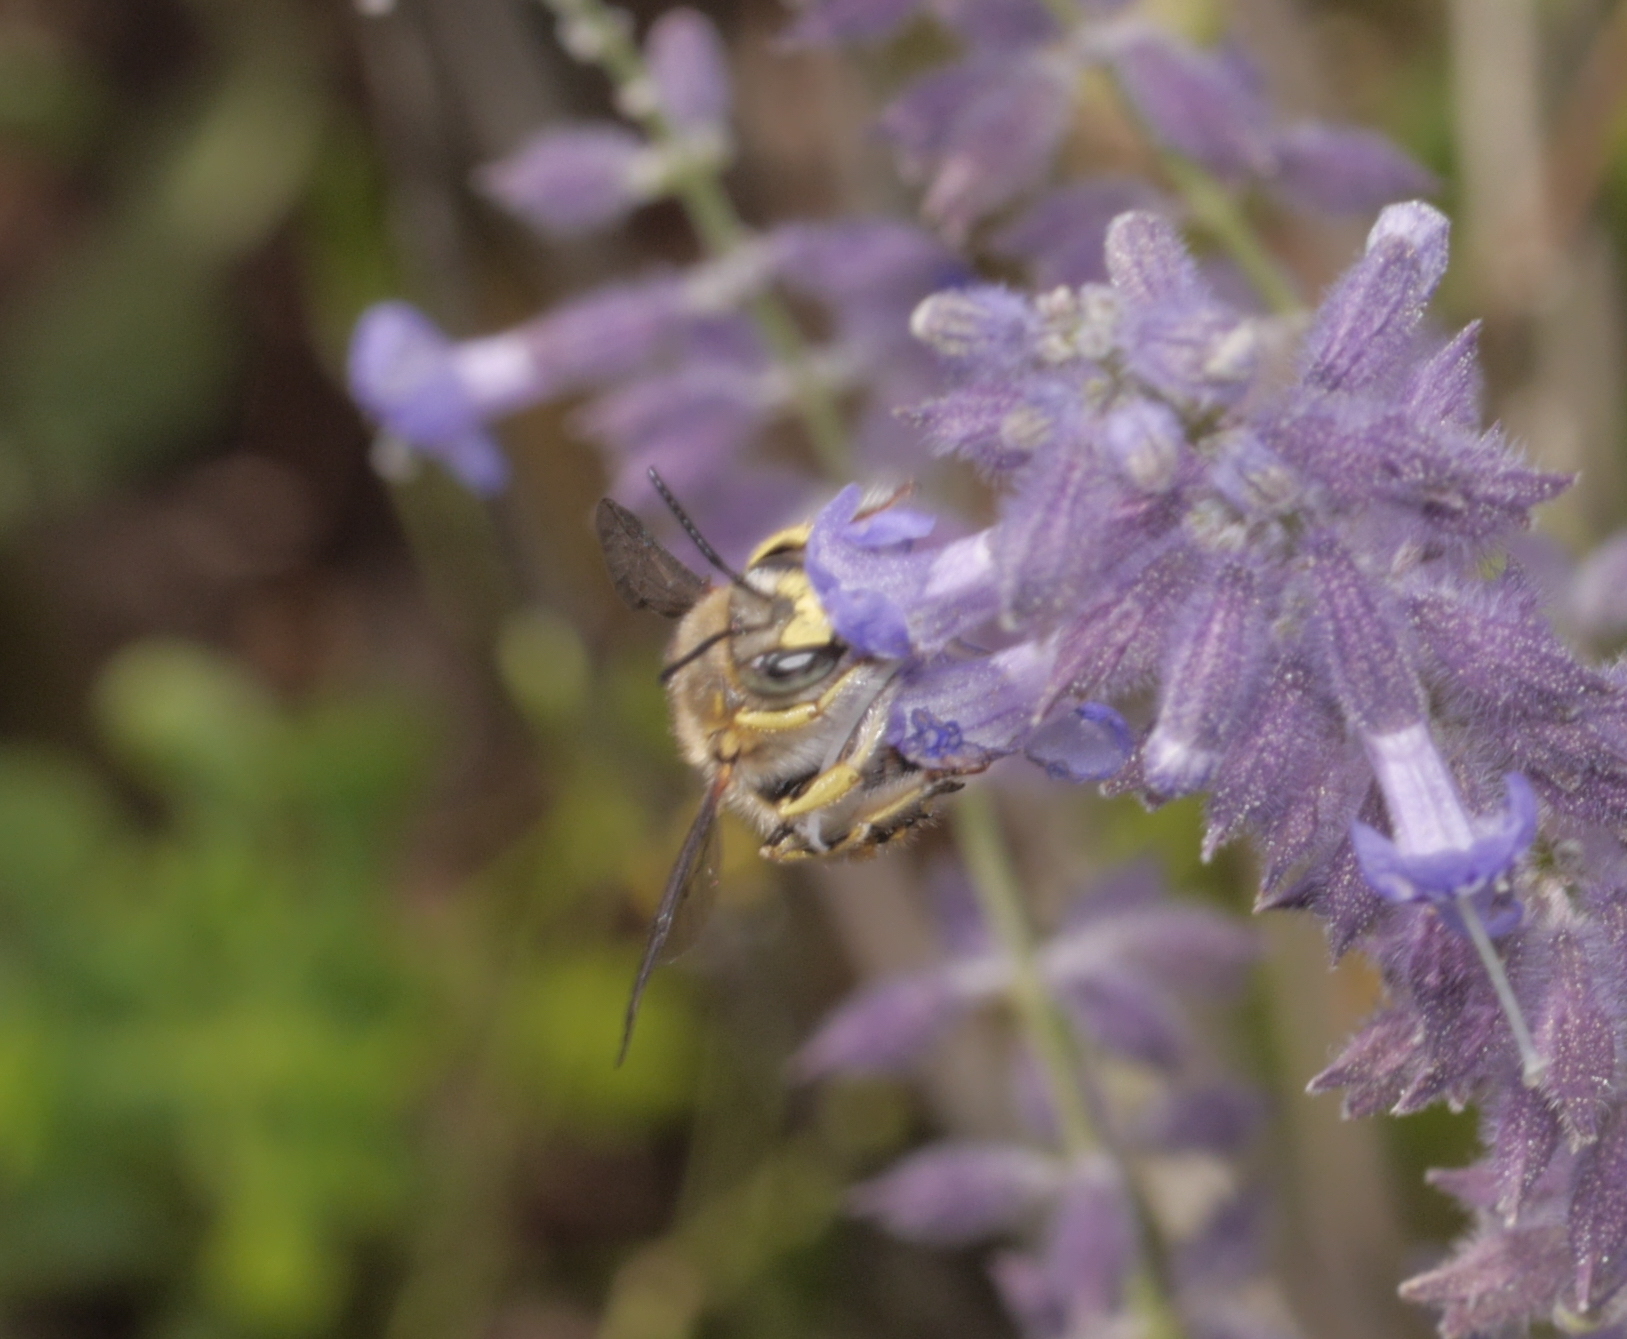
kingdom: Animalia
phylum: Arthropoda
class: Insecta
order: Hymenoptera
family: Megachilidae
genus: Anthidium
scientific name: Anthidium manicatum
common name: Wool carder bee
